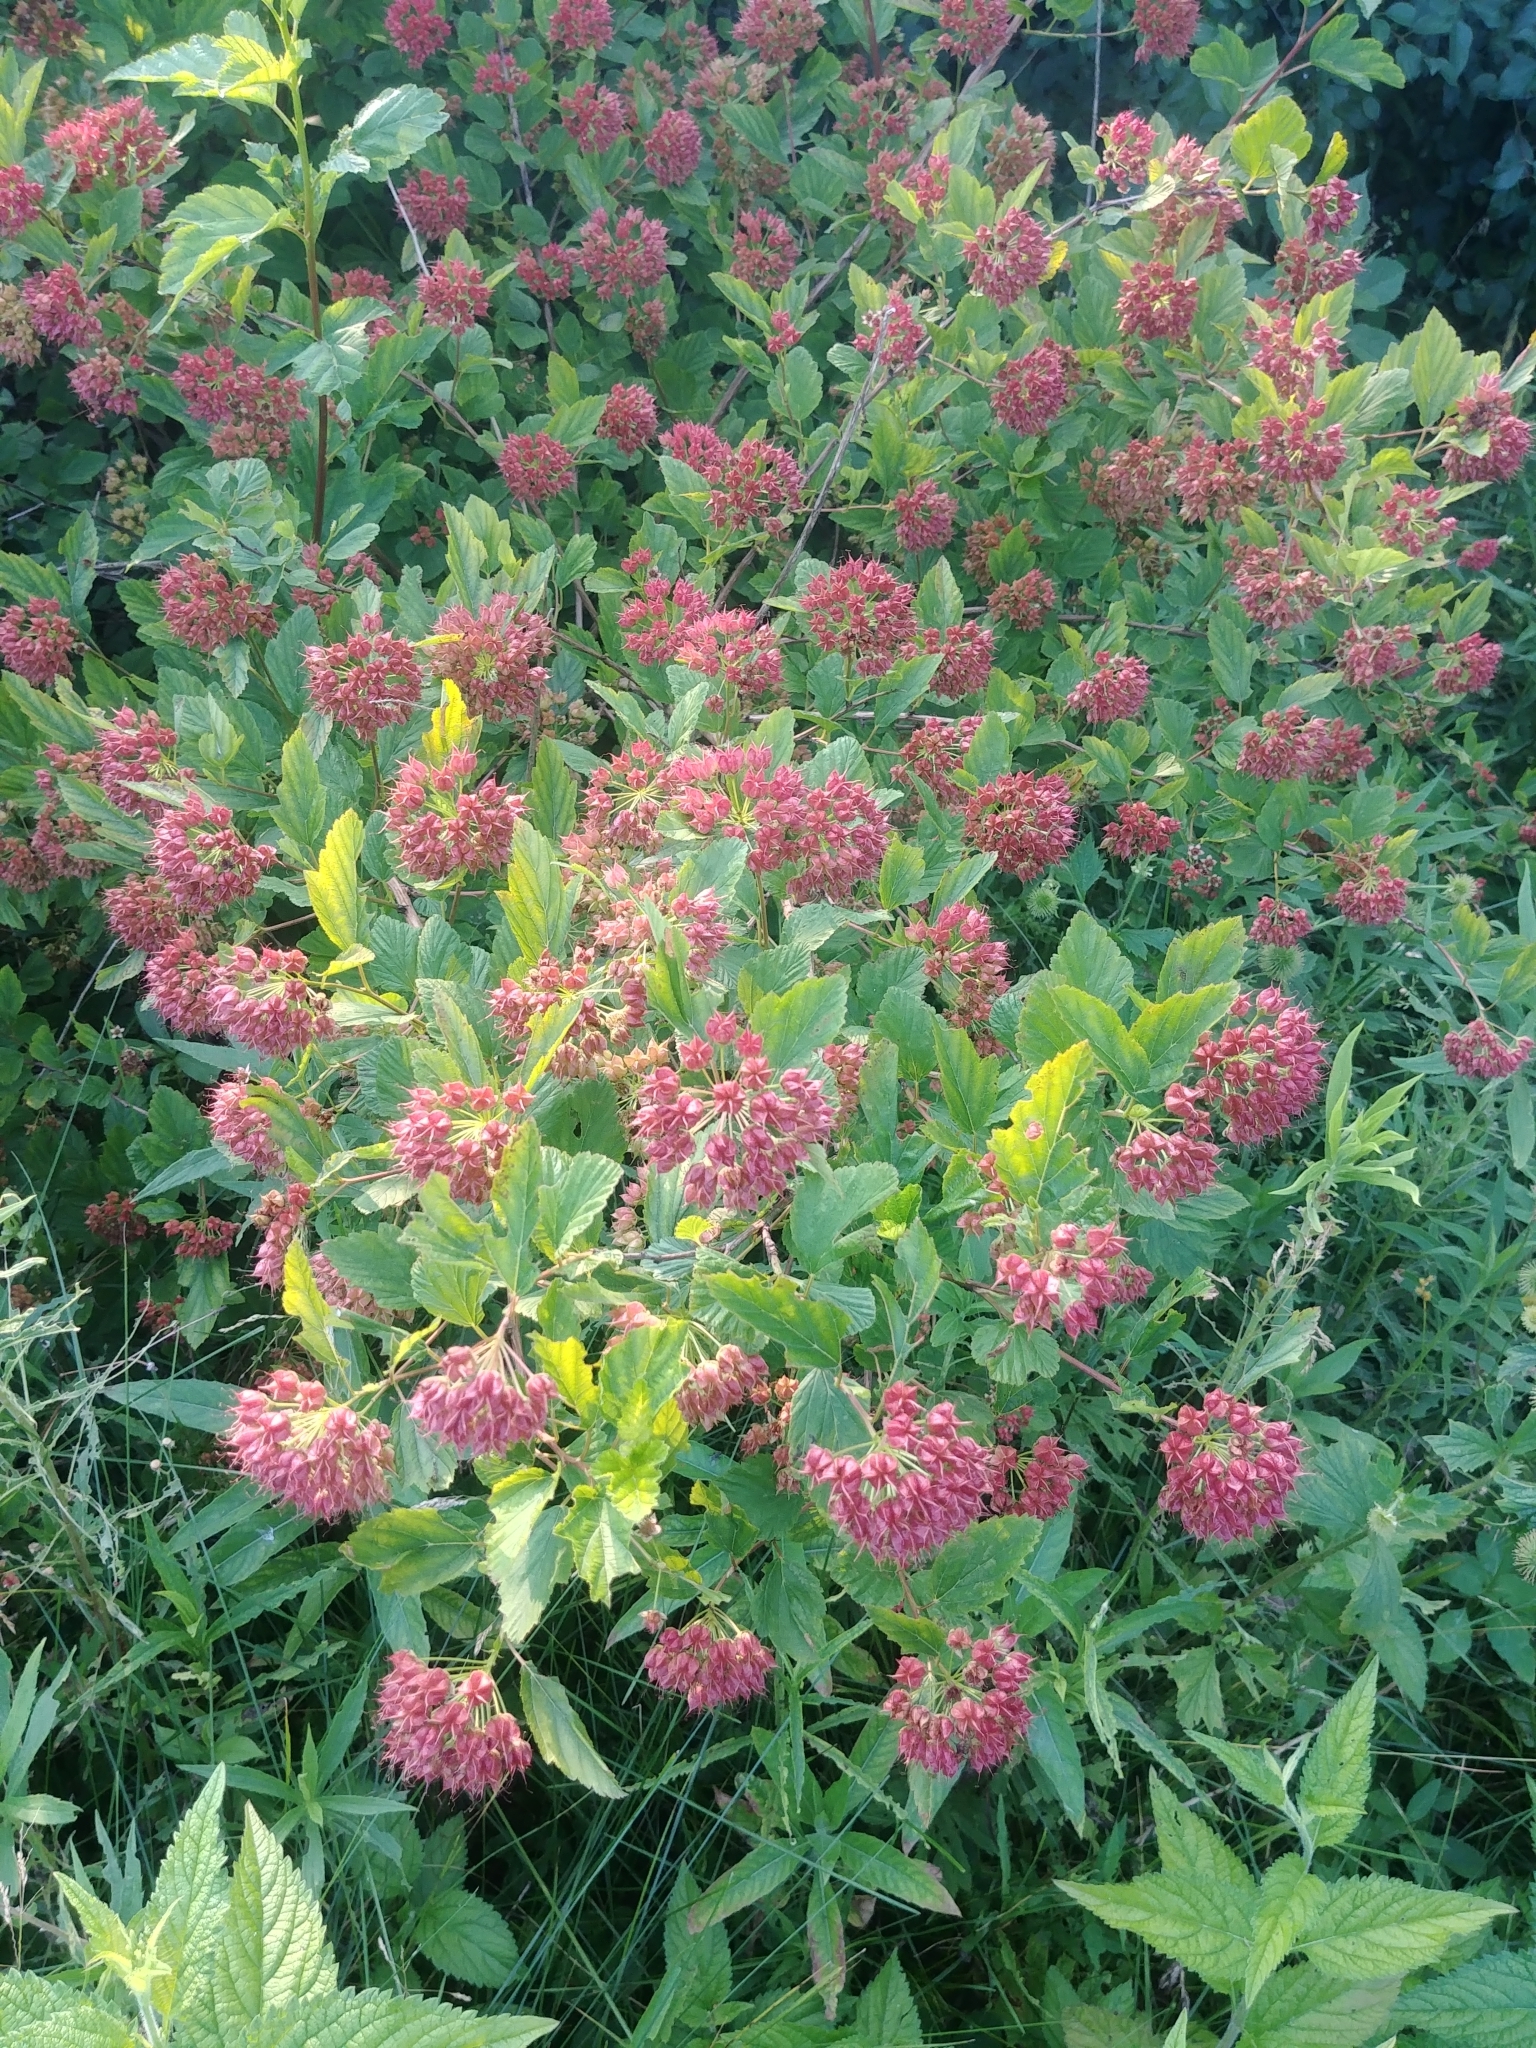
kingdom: Plantae
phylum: Tracheophyta
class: Magnoliopsida
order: Rosales
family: Rosaceae
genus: Physocarpus
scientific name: Physocarpus opulifolius
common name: Ninebark
